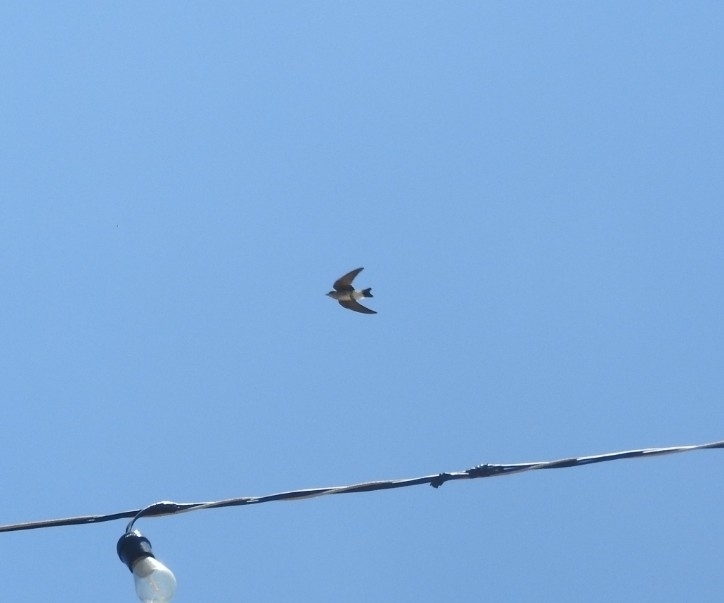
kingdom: Animalia
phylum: Chordata
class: Aves
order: Passeriformes
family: Hirundinidae
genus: Stelgidopteryx
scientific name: Stelgidopteryx serripennis
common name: Northern rough-winged swallow
